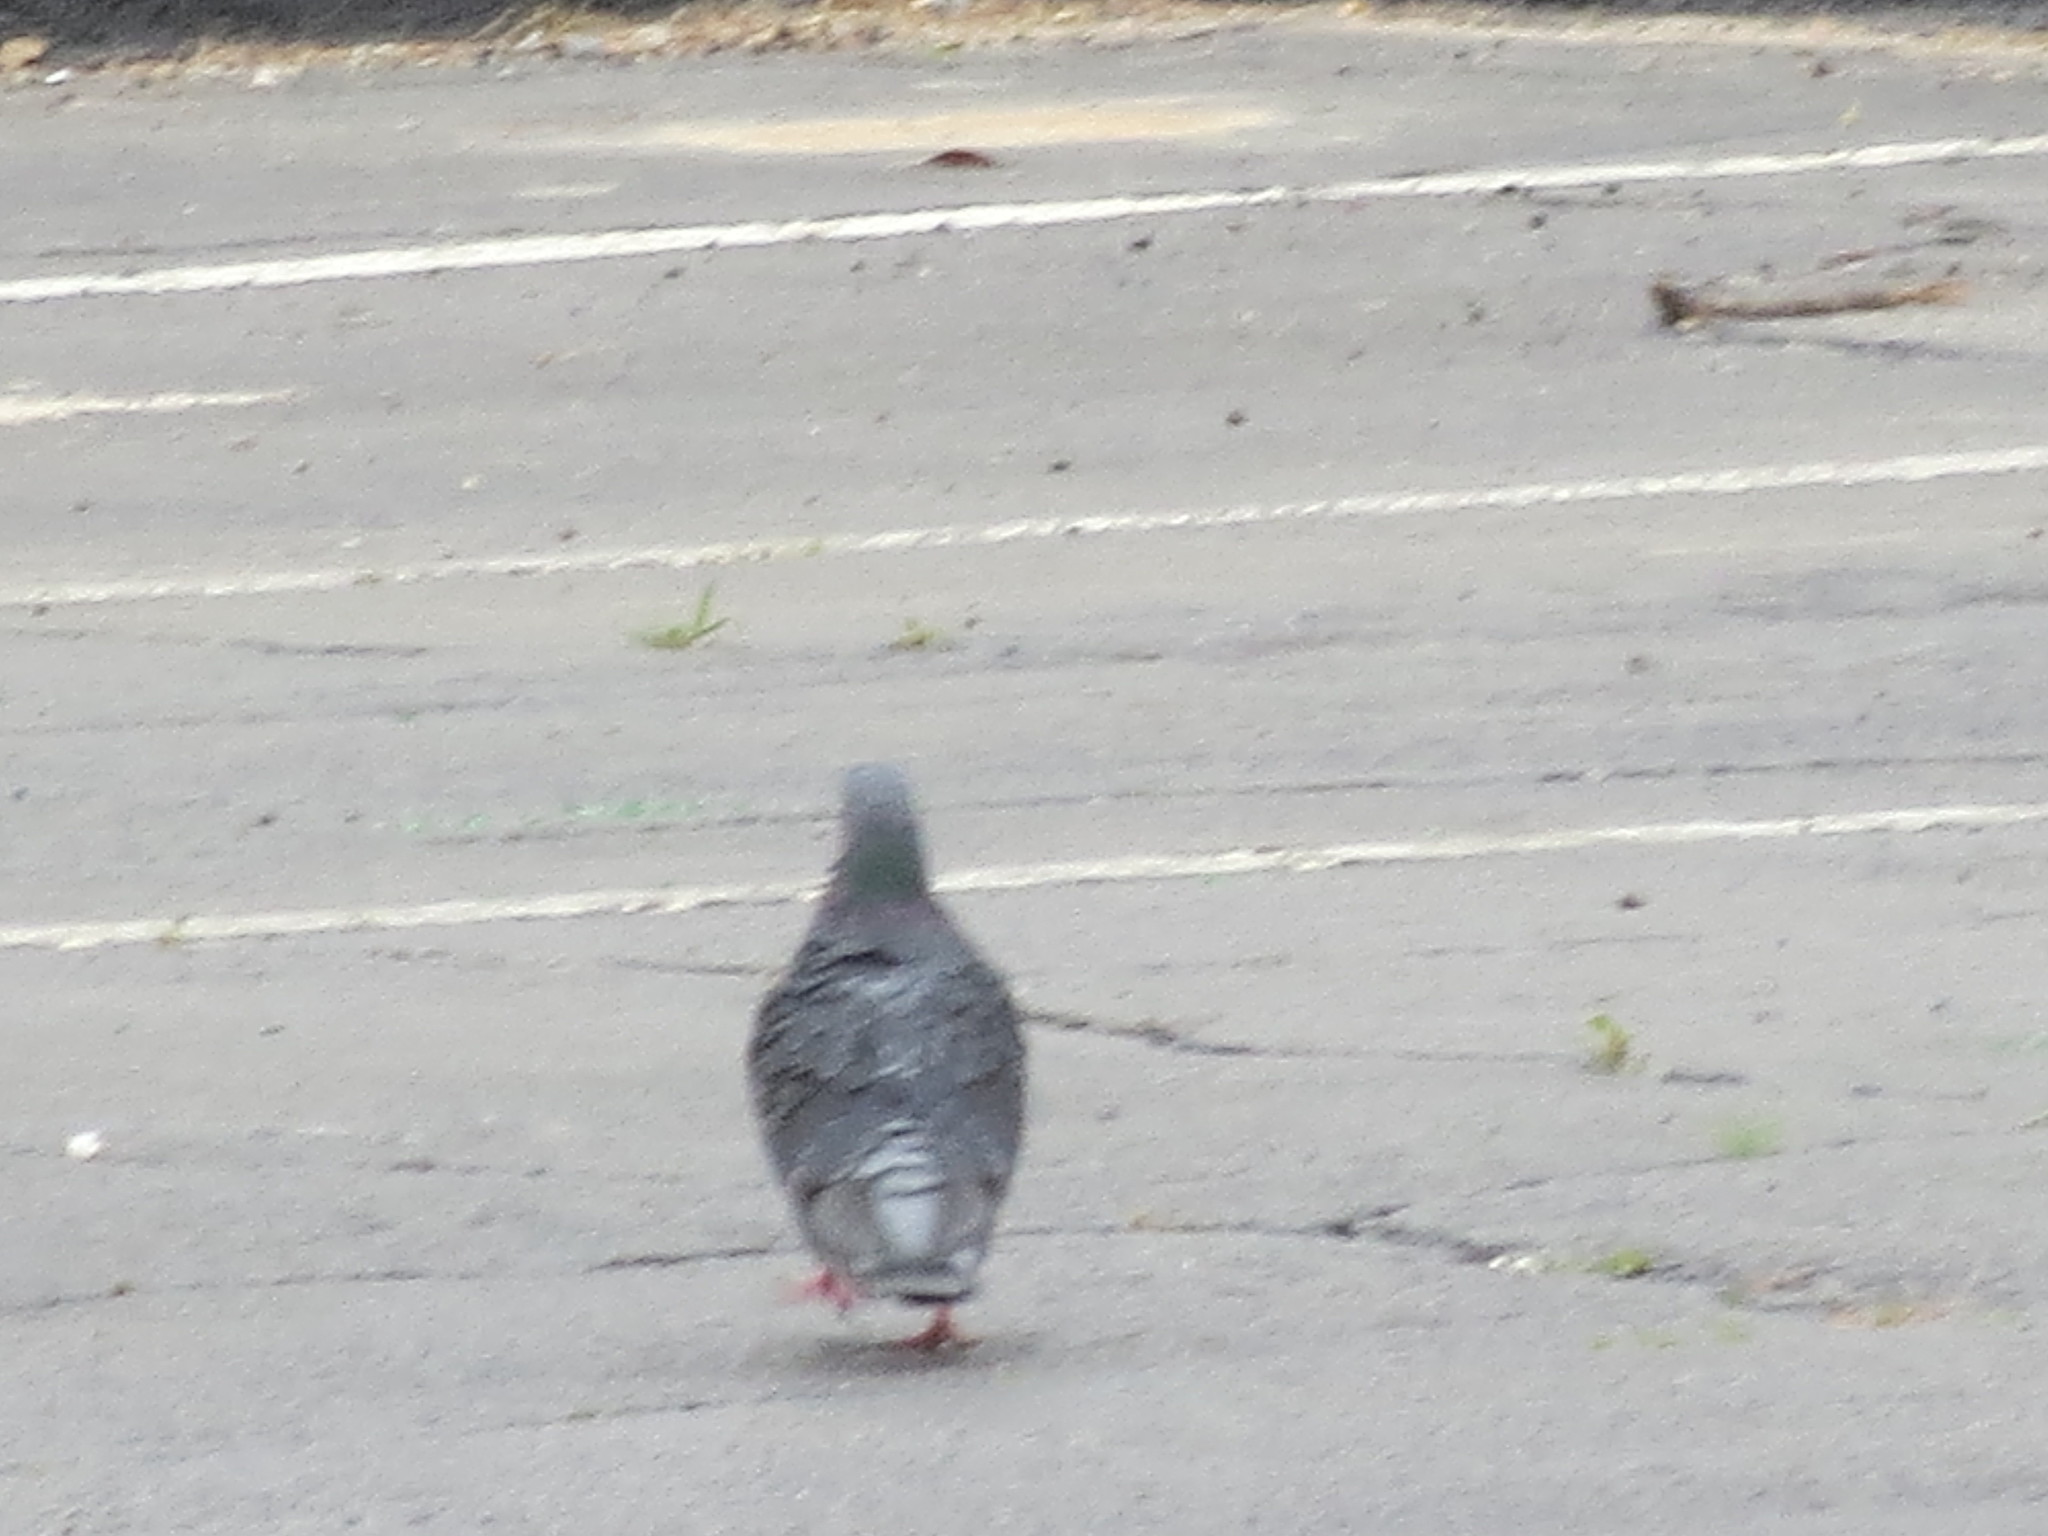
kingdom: Animalia
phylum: Chordata
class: Aves
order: Columbiformes
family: Columbidae
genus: Columba
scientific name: Columba livia
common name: Rock pigeon
